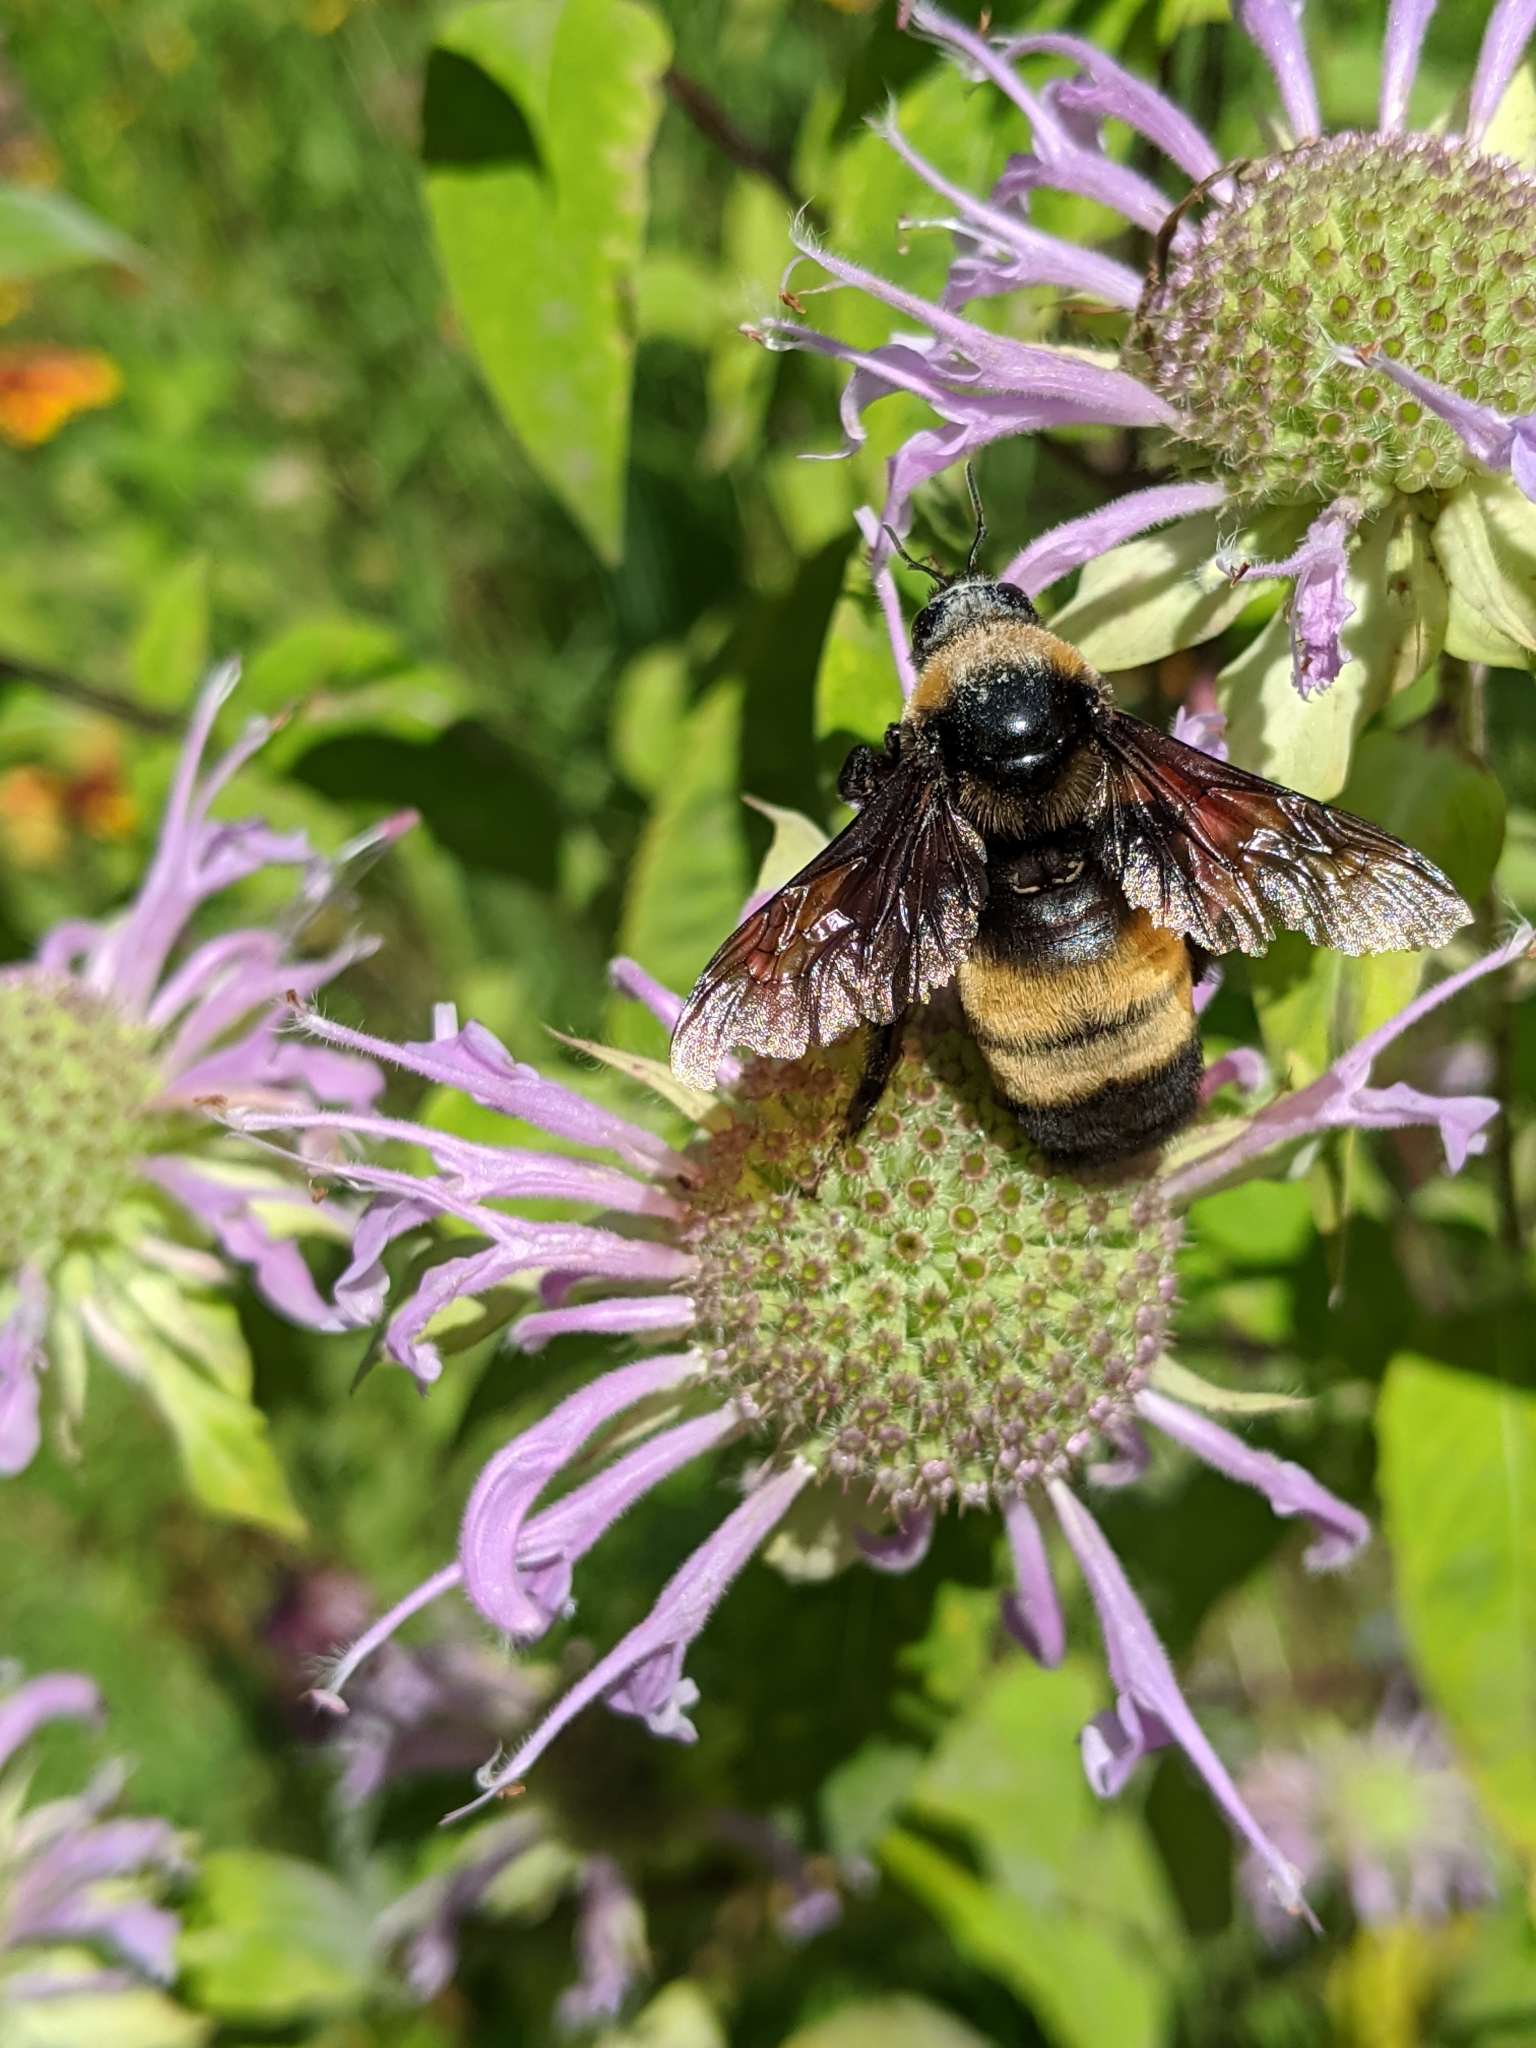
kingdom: Animalia
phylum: Arthropoda
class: Insecta
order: Hymenoptera
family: Apidae
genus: Bombus
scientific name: Bombus auricomus
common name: Black and gold bumble bee
